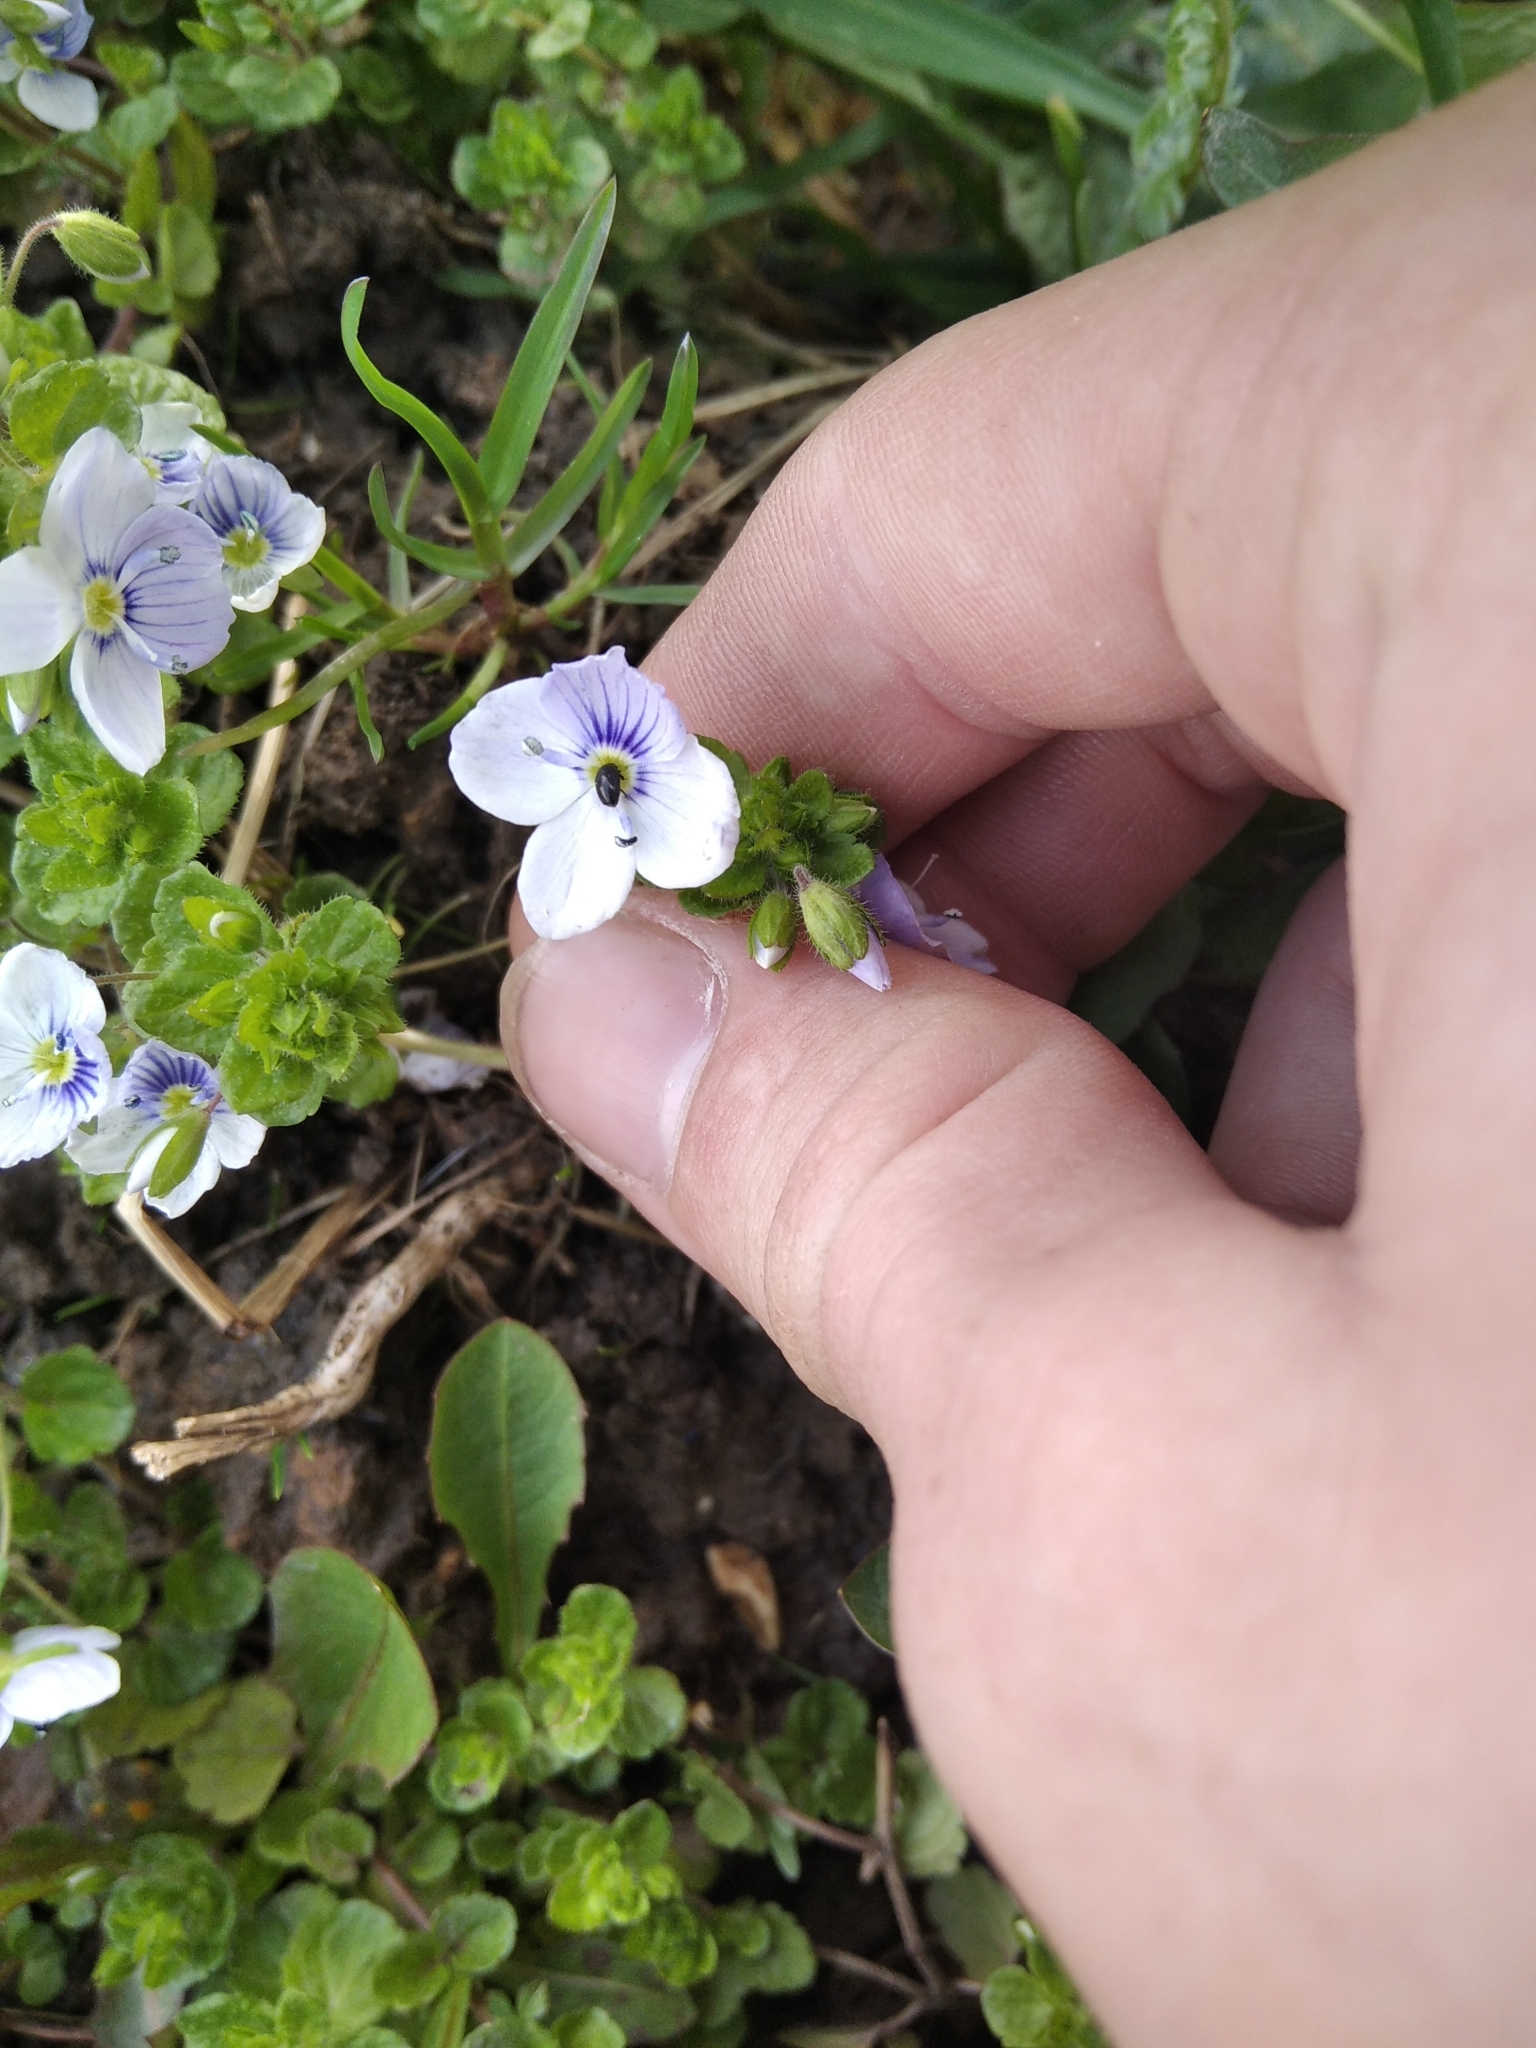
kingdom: Plantae
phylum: Tracheophyta
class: Magnoliopsida
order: Lamiales
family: Plantaginaceae
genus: Veronica
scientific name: Veronica filiformis
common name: Slender speedwell
